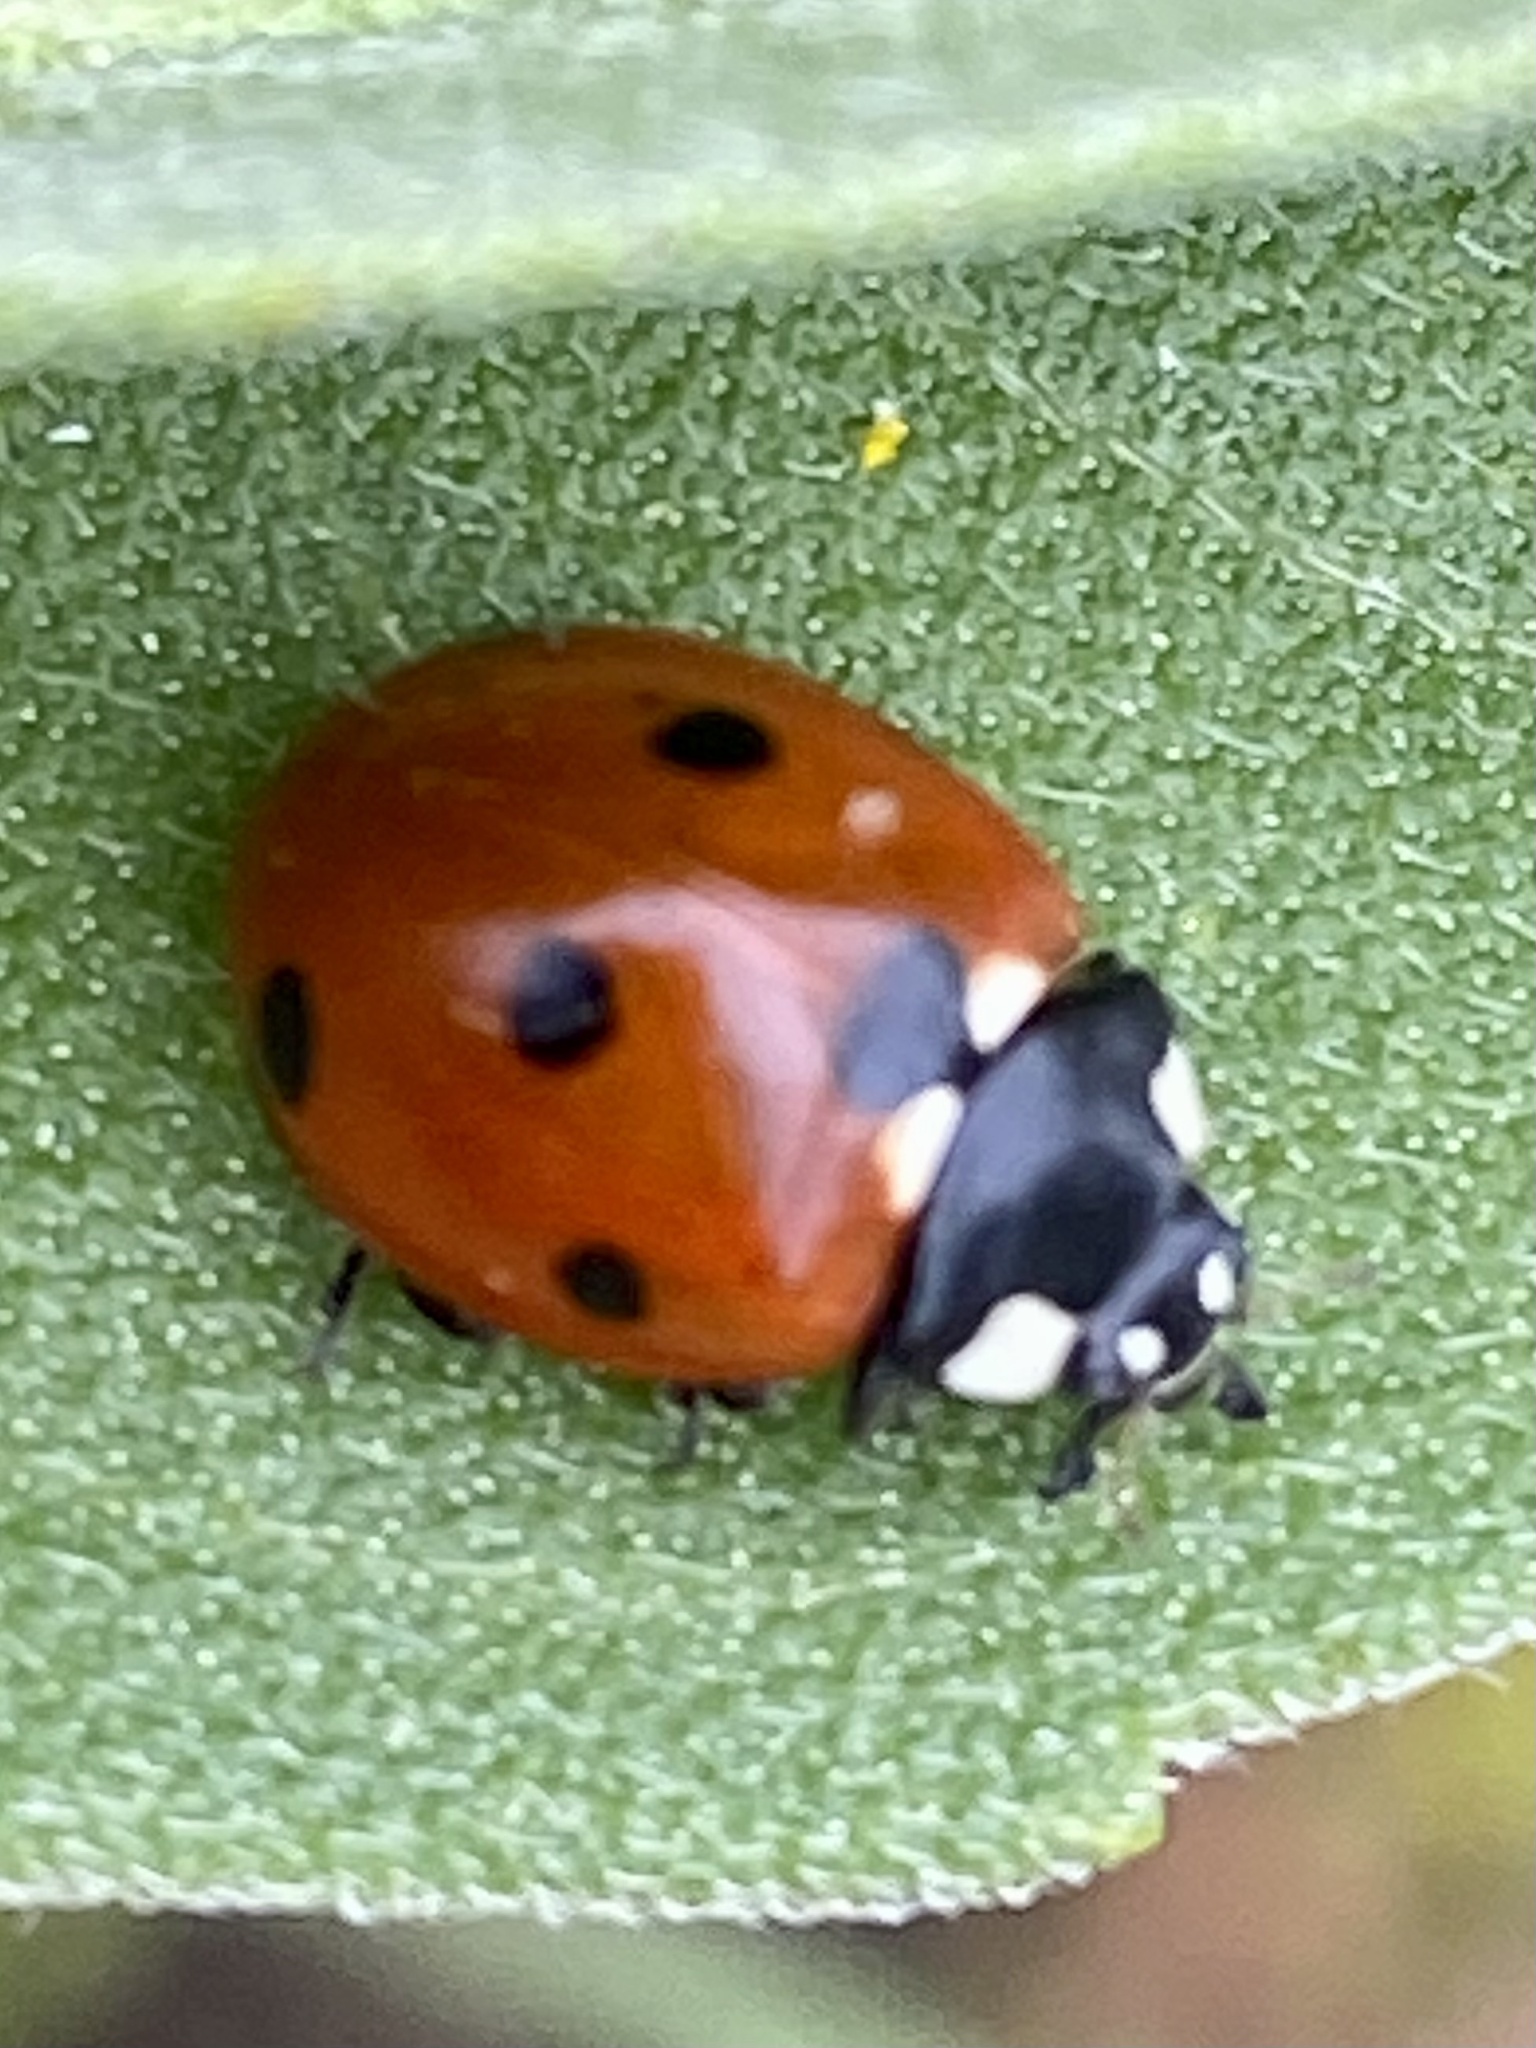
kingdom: Animalia
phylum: Arthropoda
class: Insecta
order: Coleoptera
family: Coccinellidae
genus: Coccinella
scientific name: Coccinella septempunctata
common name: Sevenspotted lady beetle
